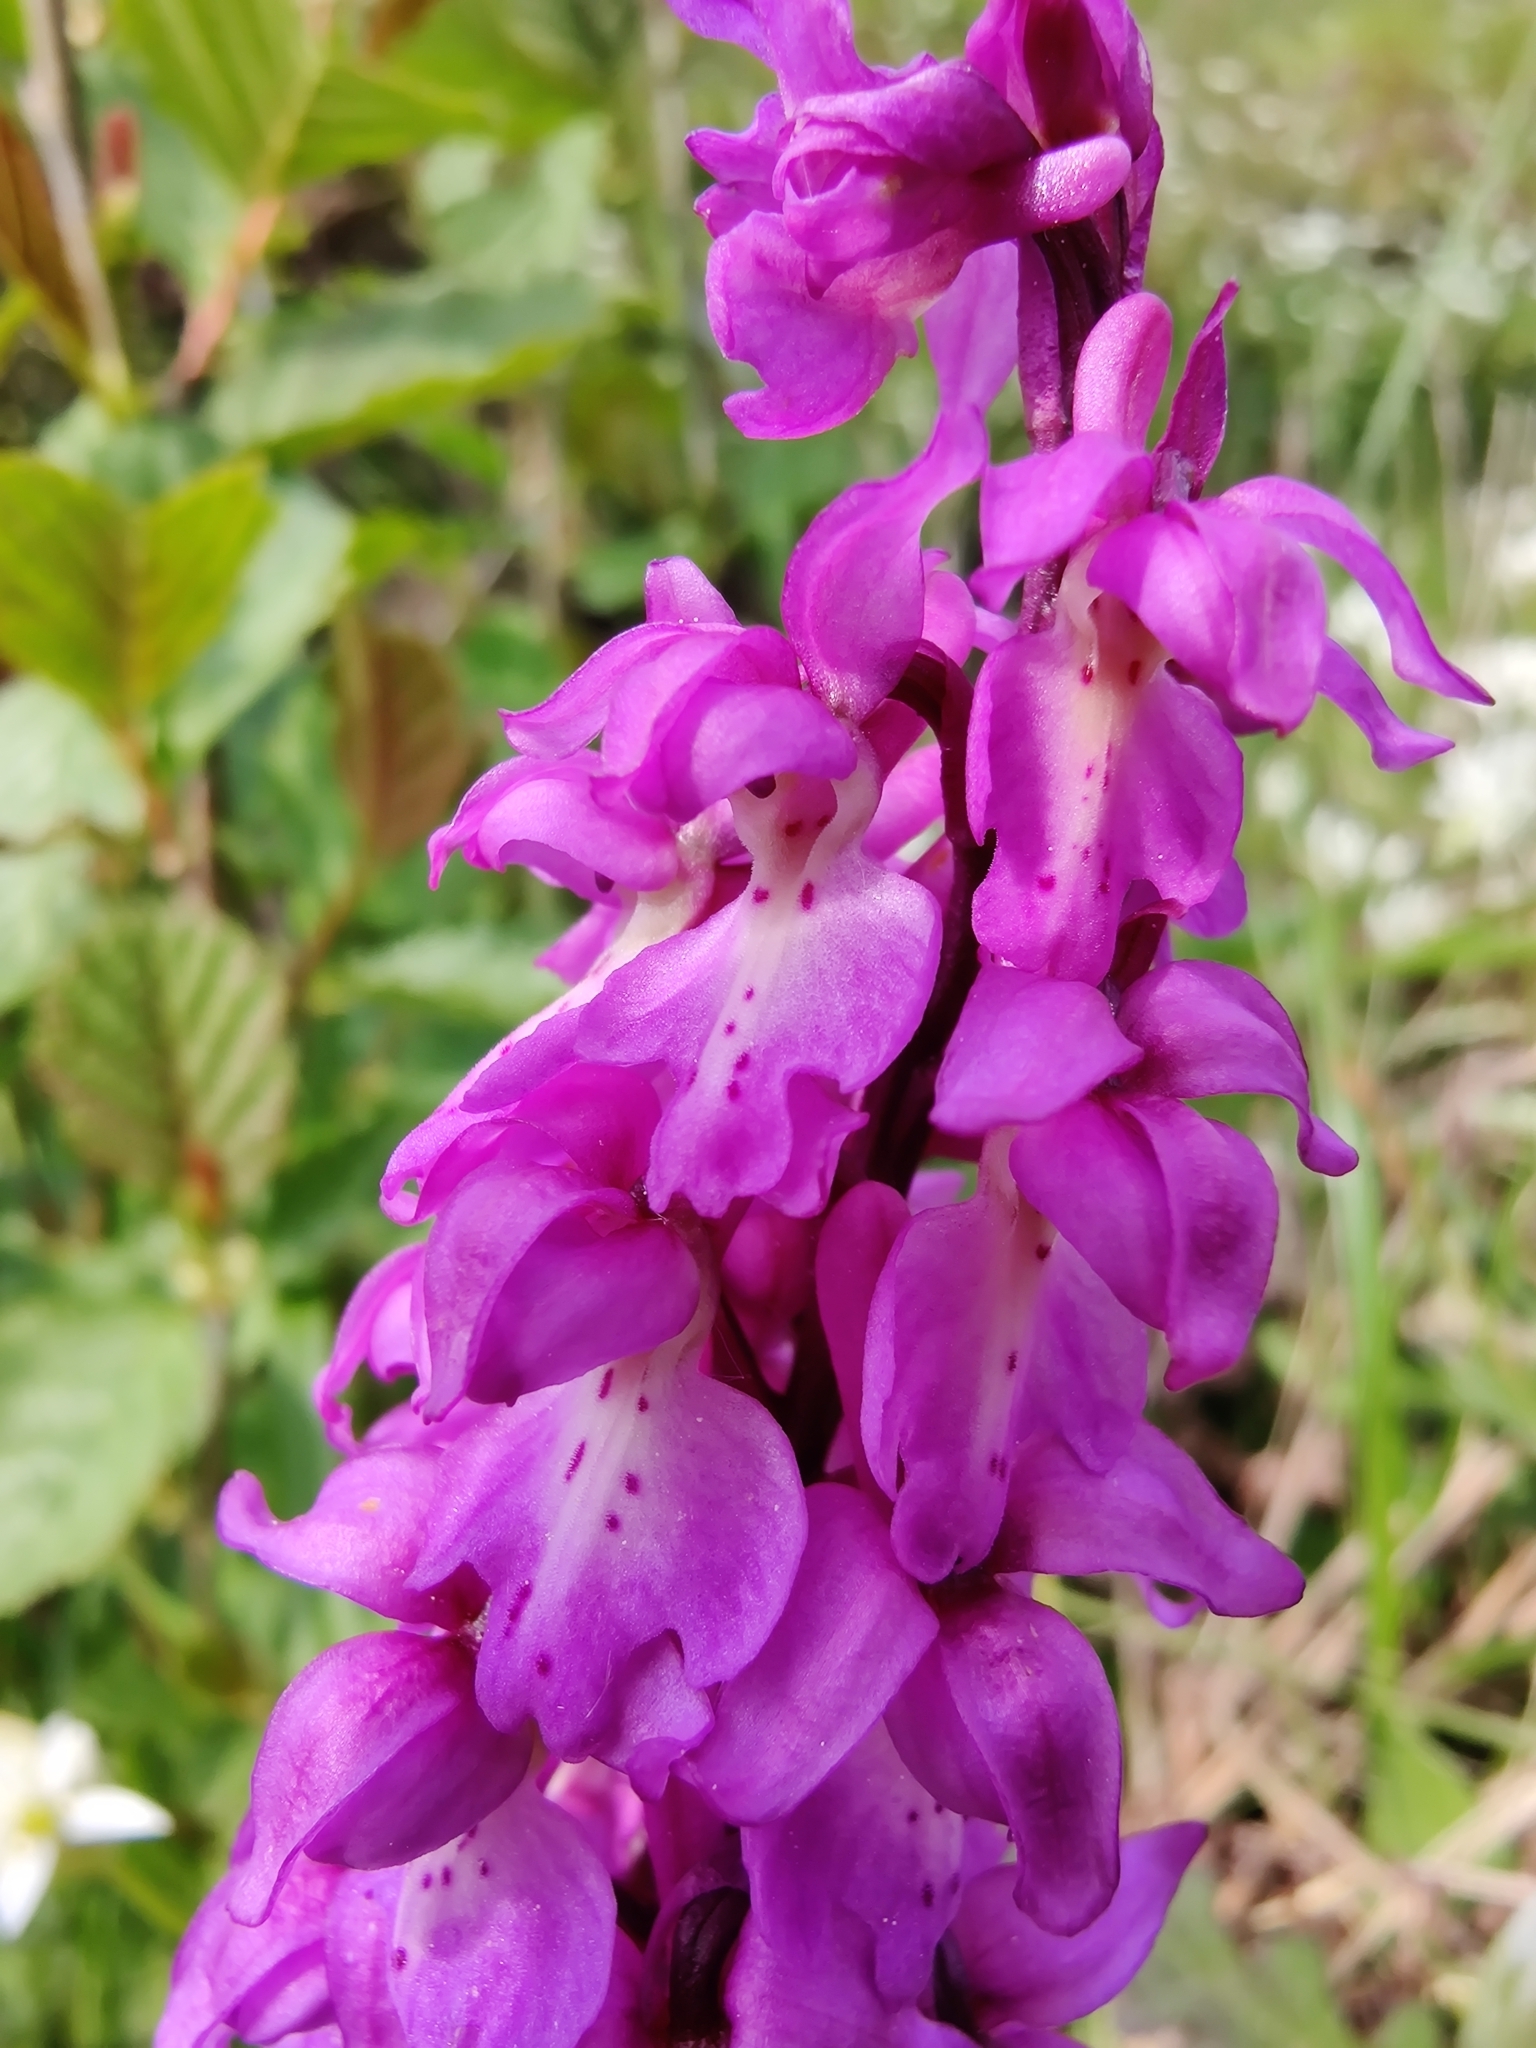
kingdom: Plantae
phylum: Tracheophyta
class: Liliopsida
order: Asparagales
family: Orchidaceae
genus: Orchis
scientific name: Orchis mascula
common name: Early-purple orchid
